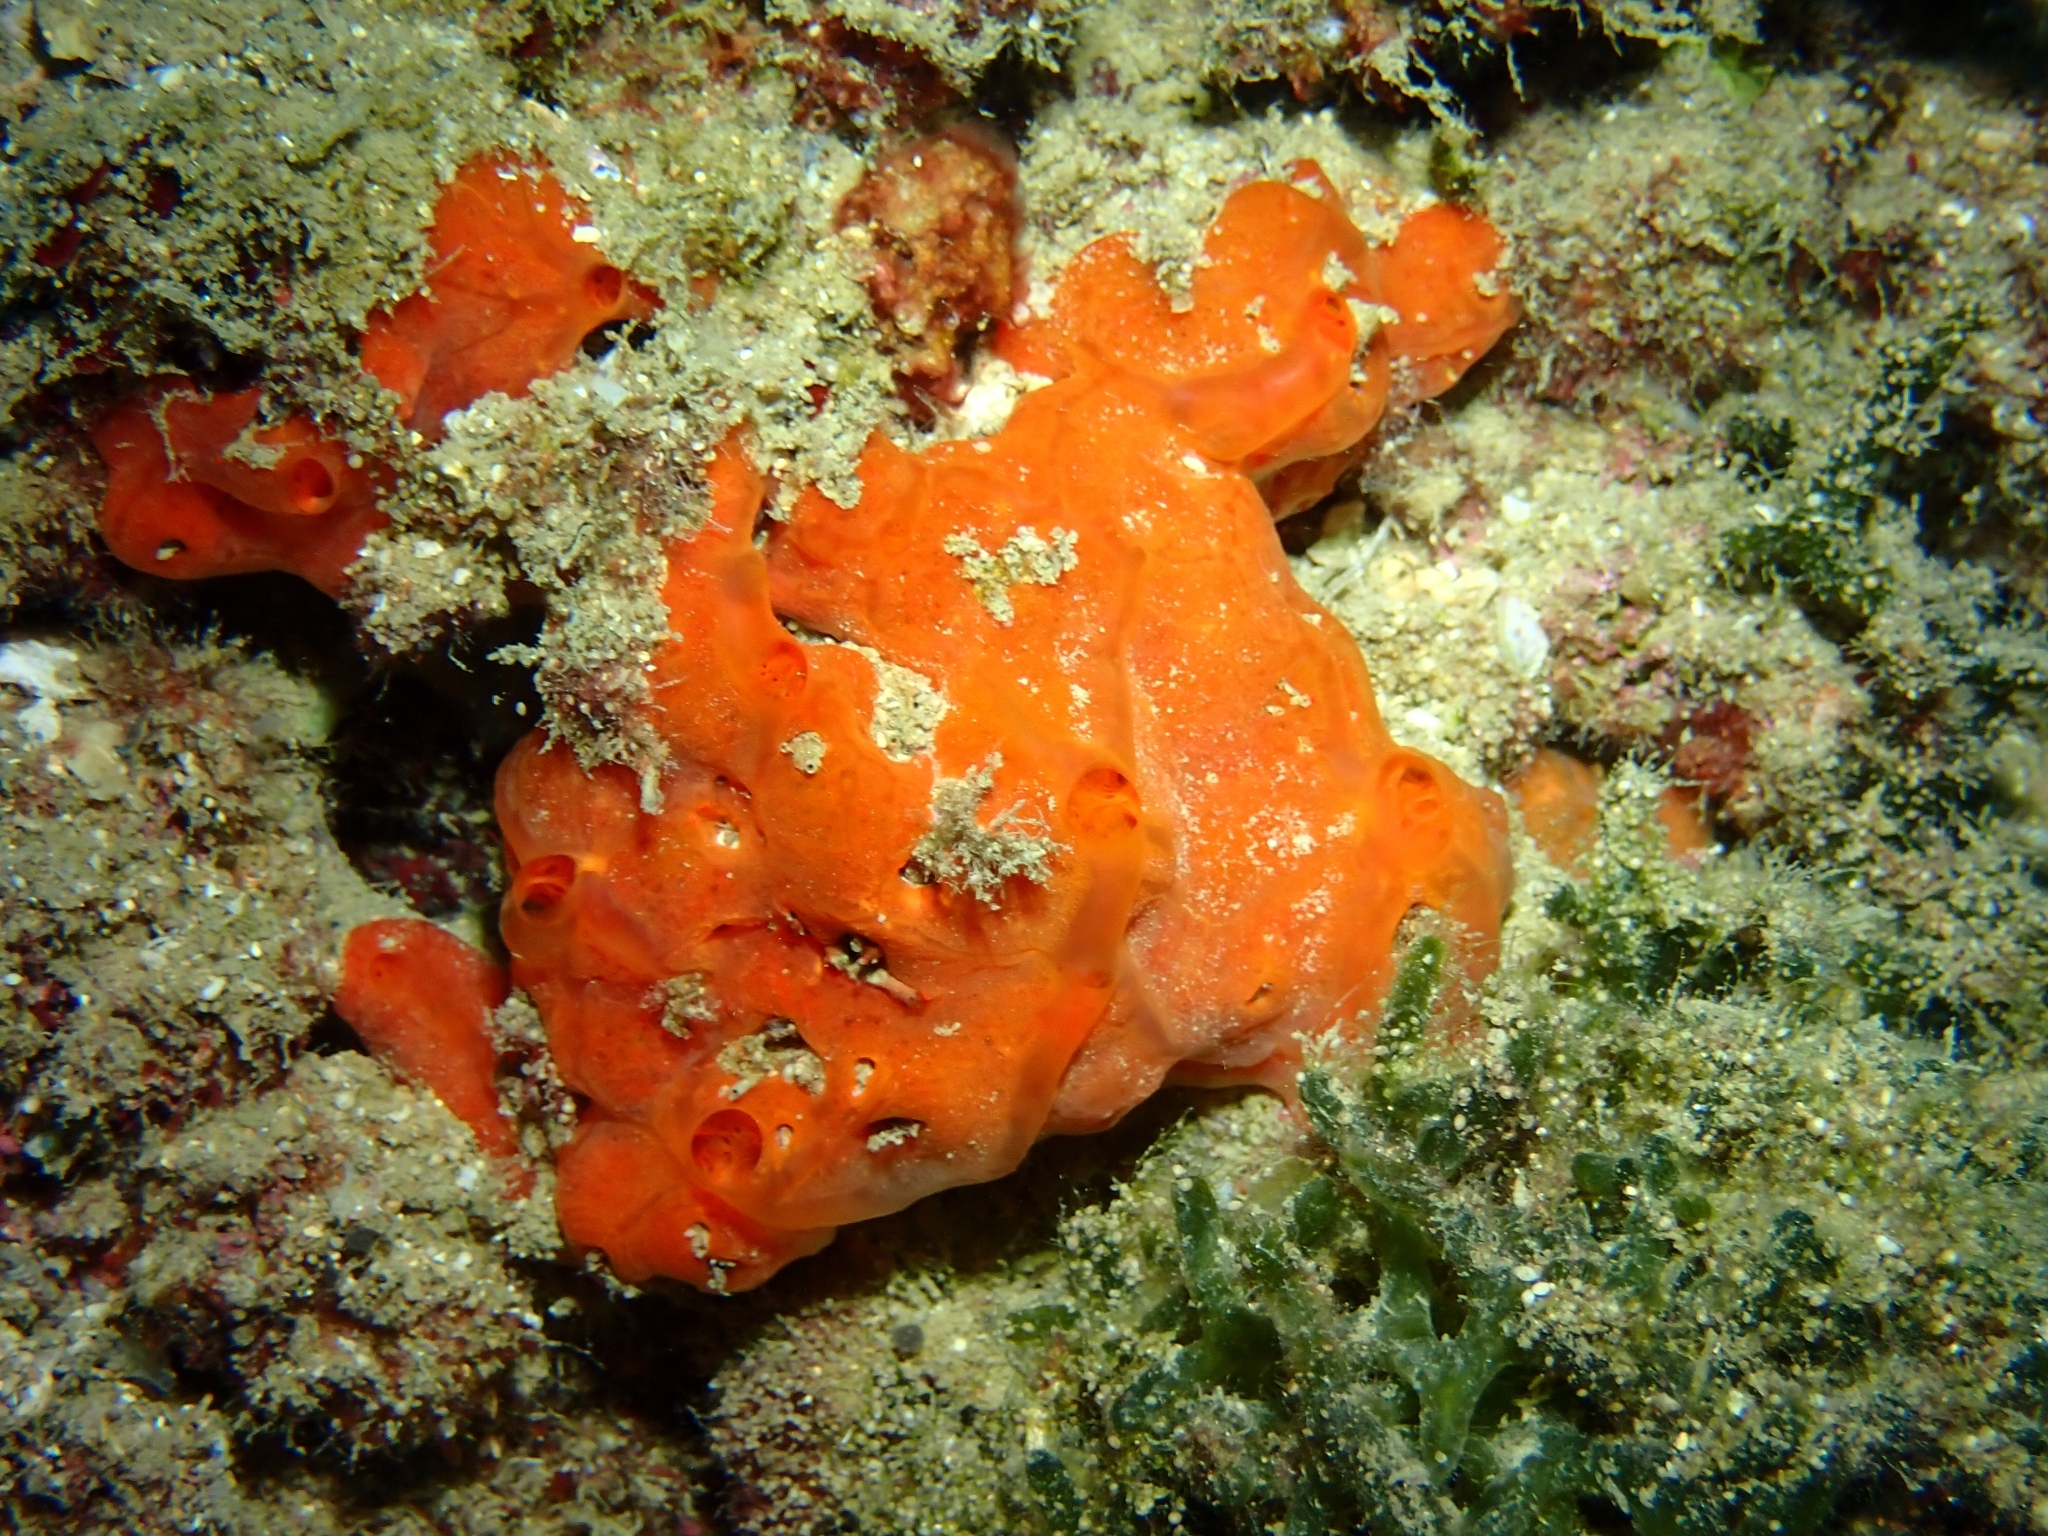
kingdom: Animalia
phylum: Porifera
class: Demospongiae
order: Poecilosclerida
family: Crambeidae
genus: Crambe
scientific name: Crambe crambe
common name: Orange-red encrusting sponge
